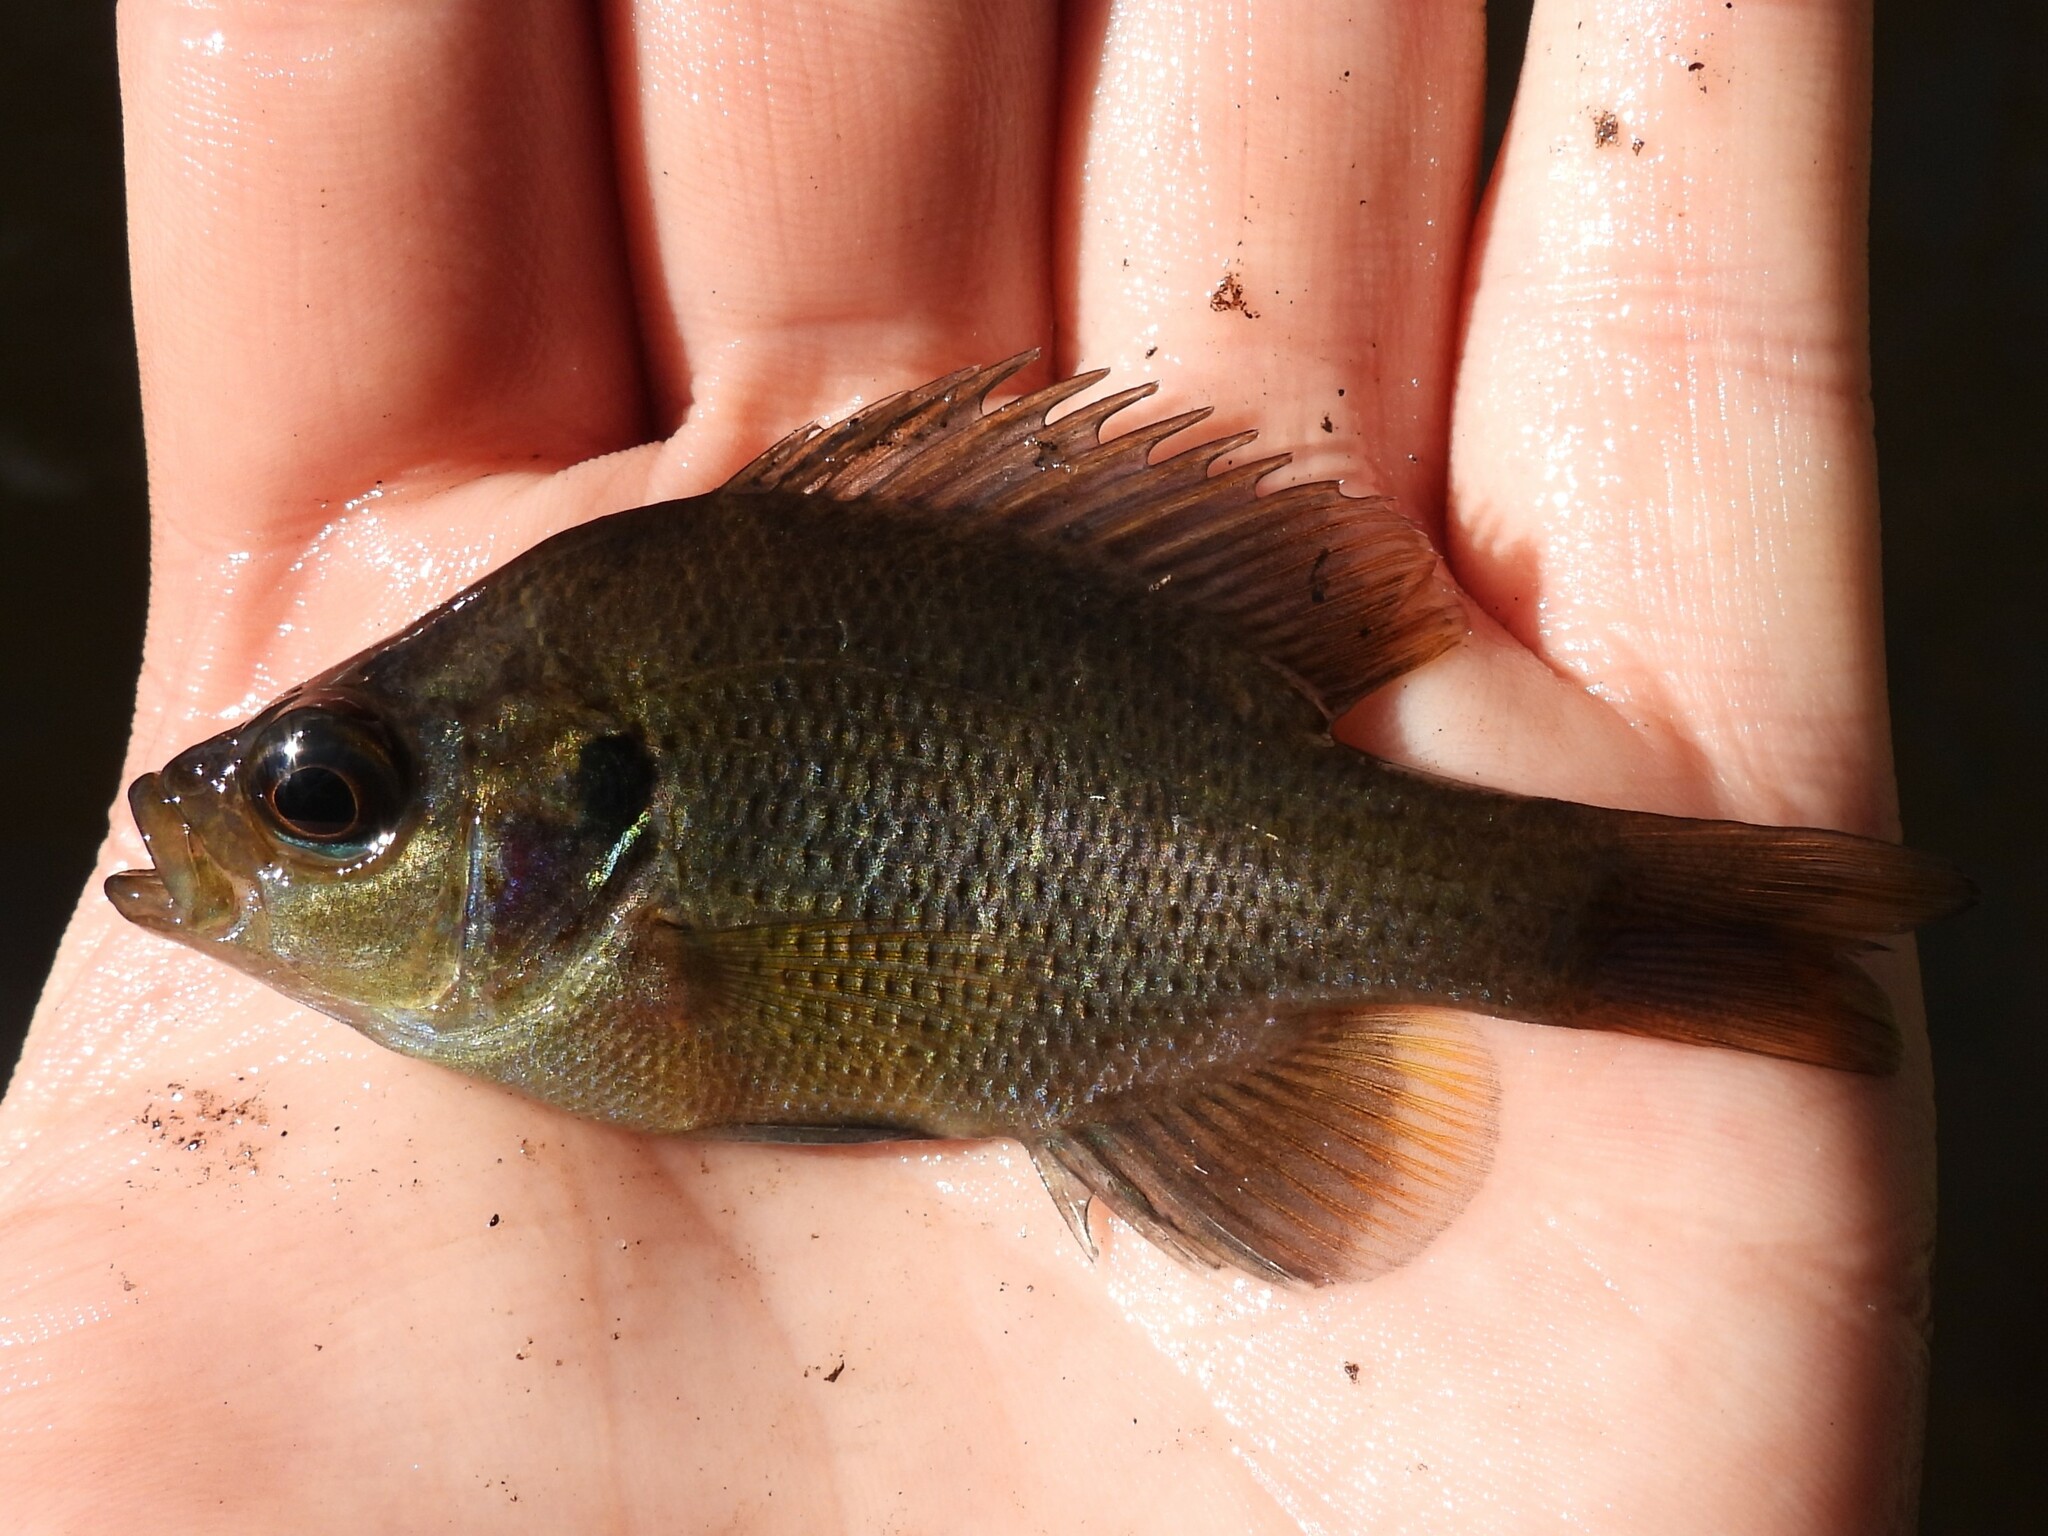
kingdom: Animalia
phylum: Chordata
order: Perciformes
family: Centrarchidae
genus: Lepomis
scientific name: Lepomis punctatus
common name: Spotted sunfish
